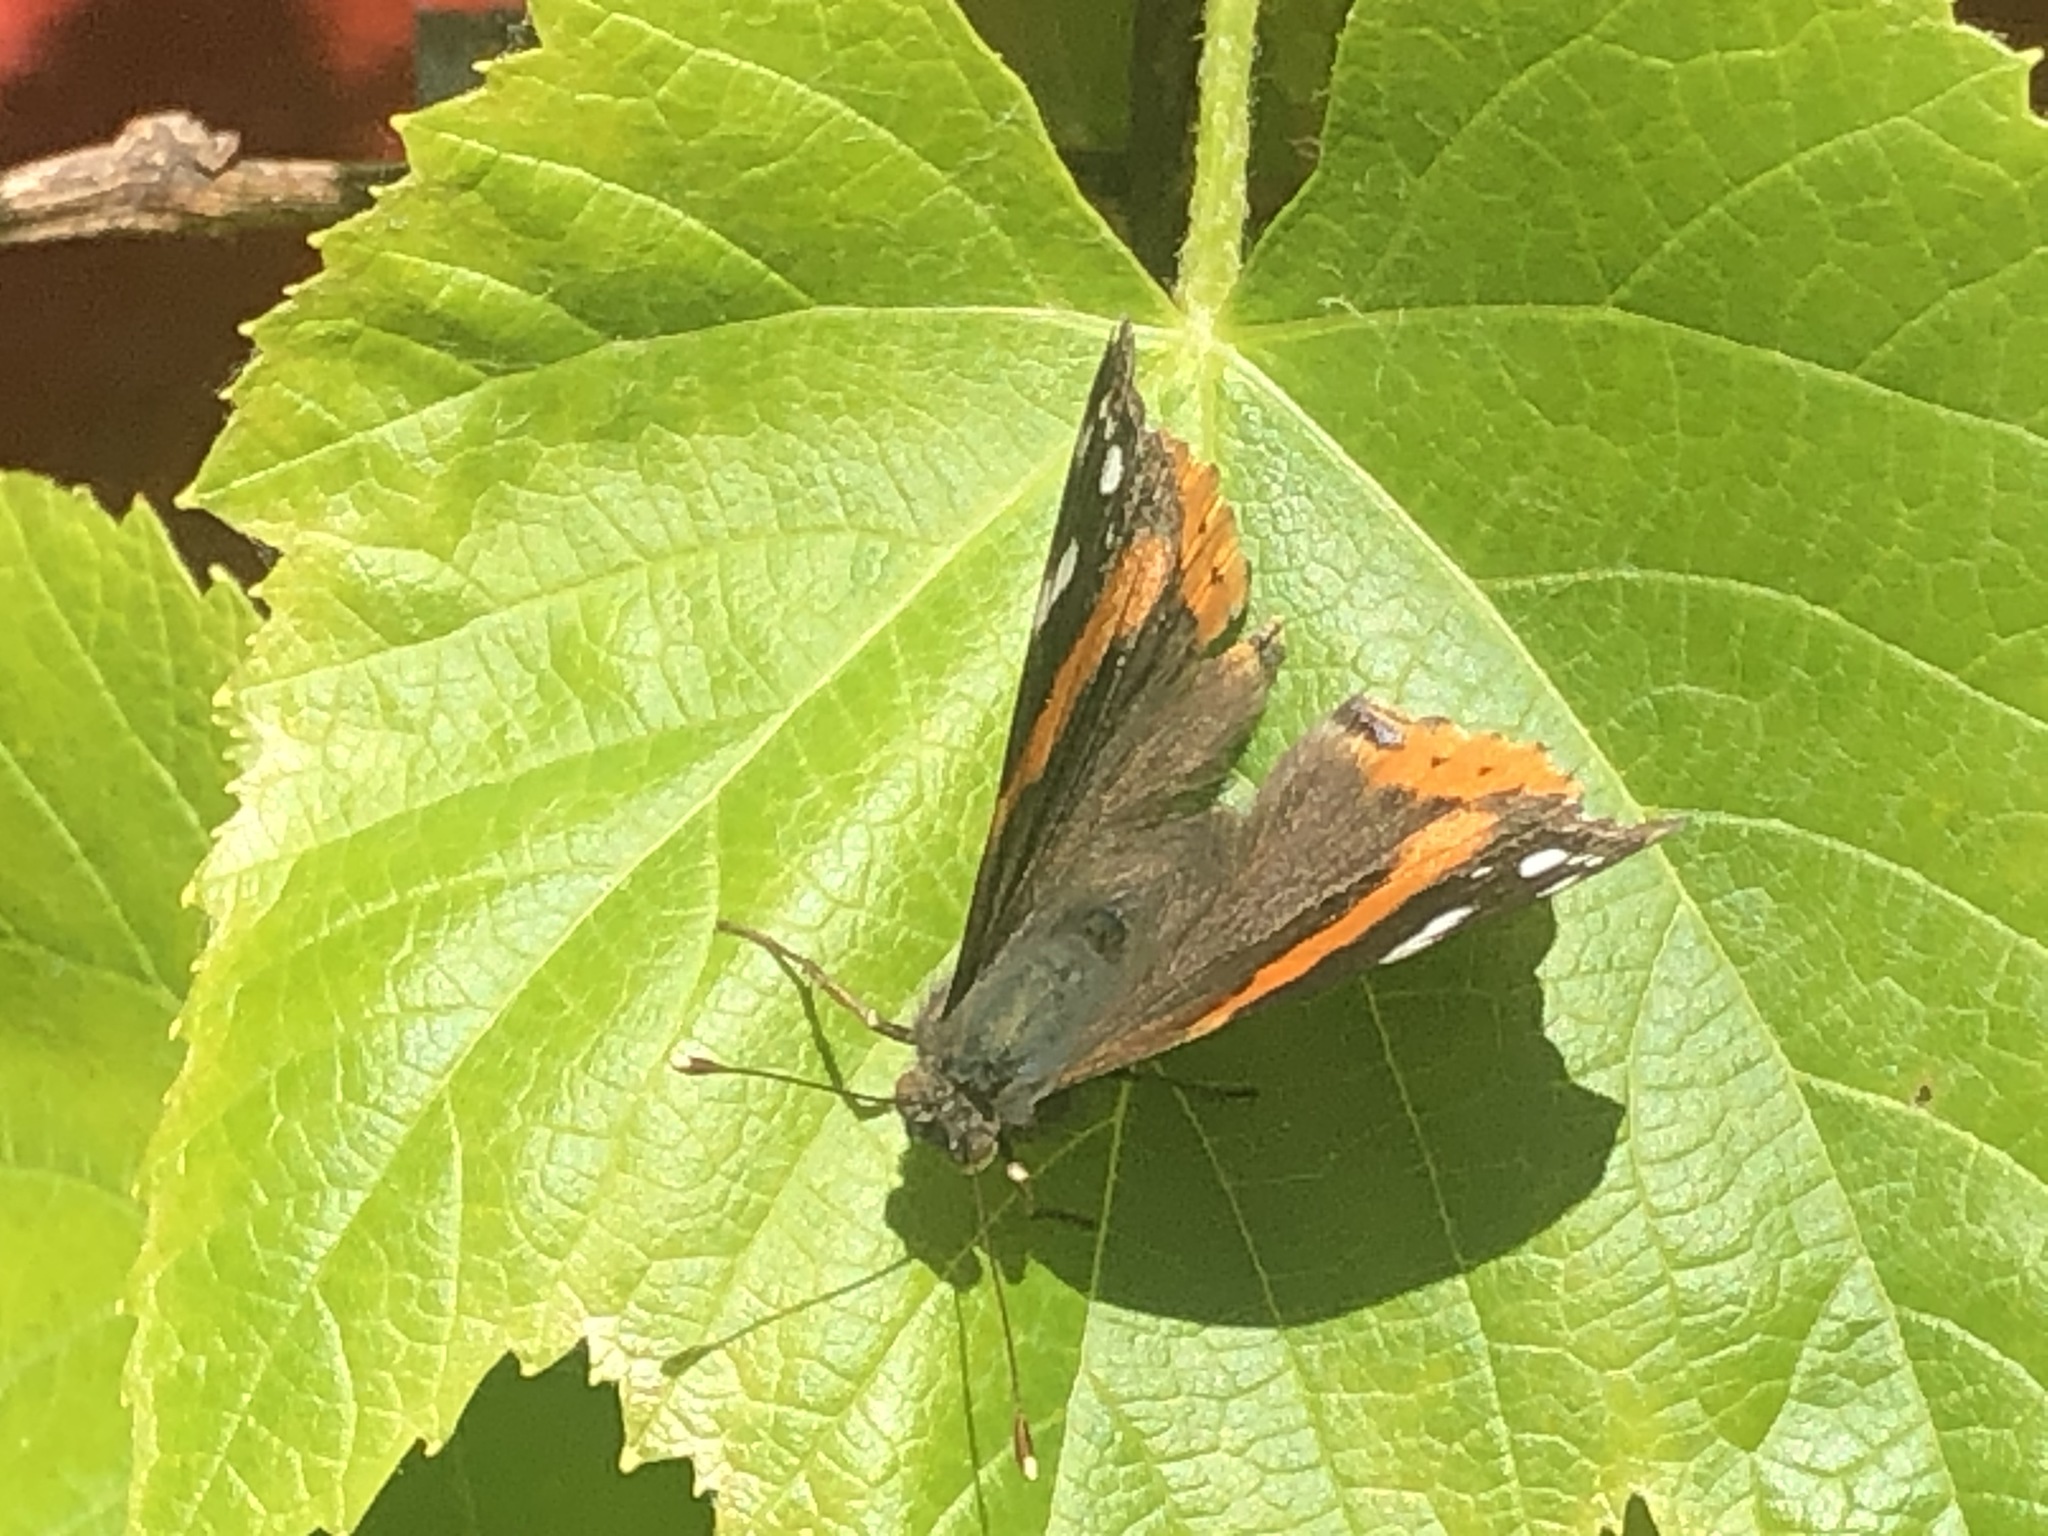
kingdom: Animalia
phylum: Arthropoda
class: Insecta
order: Lepidoptera
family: Nymphalidae
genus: Vanessa
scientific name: Vanessa atalanta
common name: Red admiral
